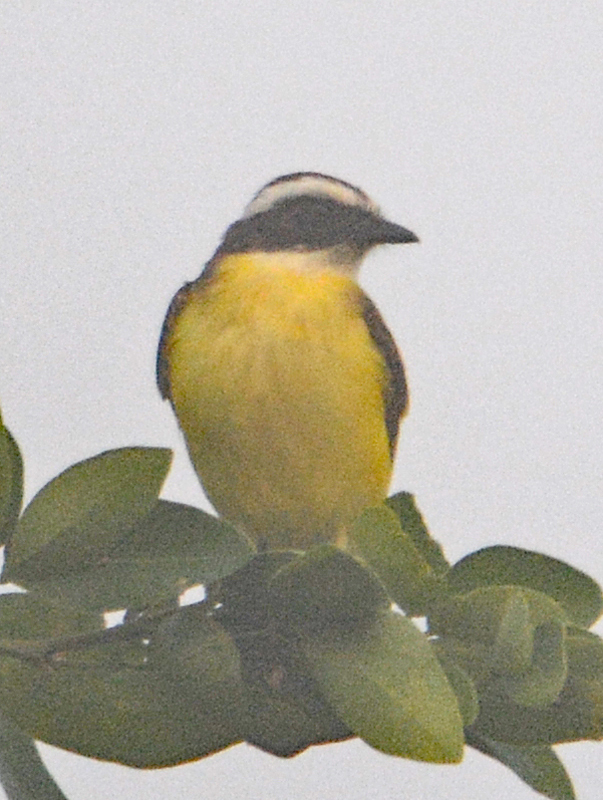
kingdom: Animalia
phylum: Chordata
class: Aves
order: Passeriformes
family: Tyrannidae
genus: Myiozetetes
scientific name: Myiozetetes similis
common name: Social flycatcher
